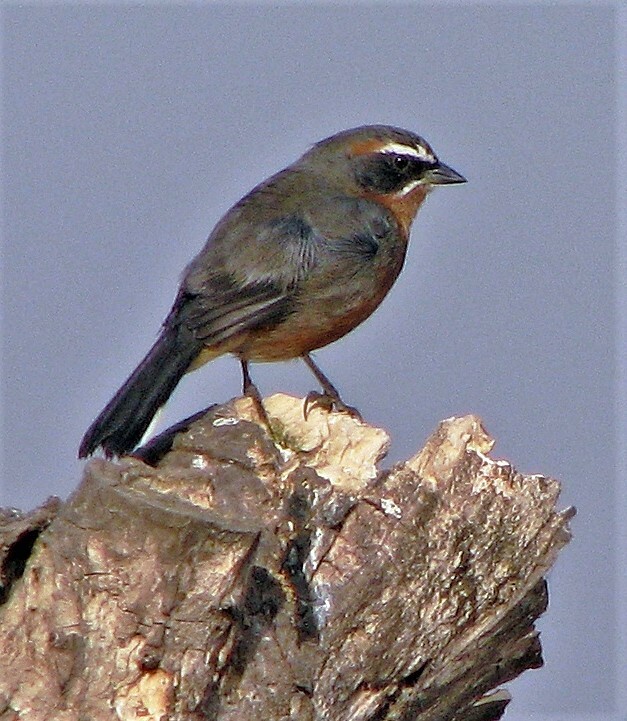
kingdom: Animalia
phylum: Chordata
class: Aves
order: Passeriformes
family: Thraupidae
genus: Poospiza
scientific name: Poospiza nigrorufa
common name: Black-and-rufous warbling finch
